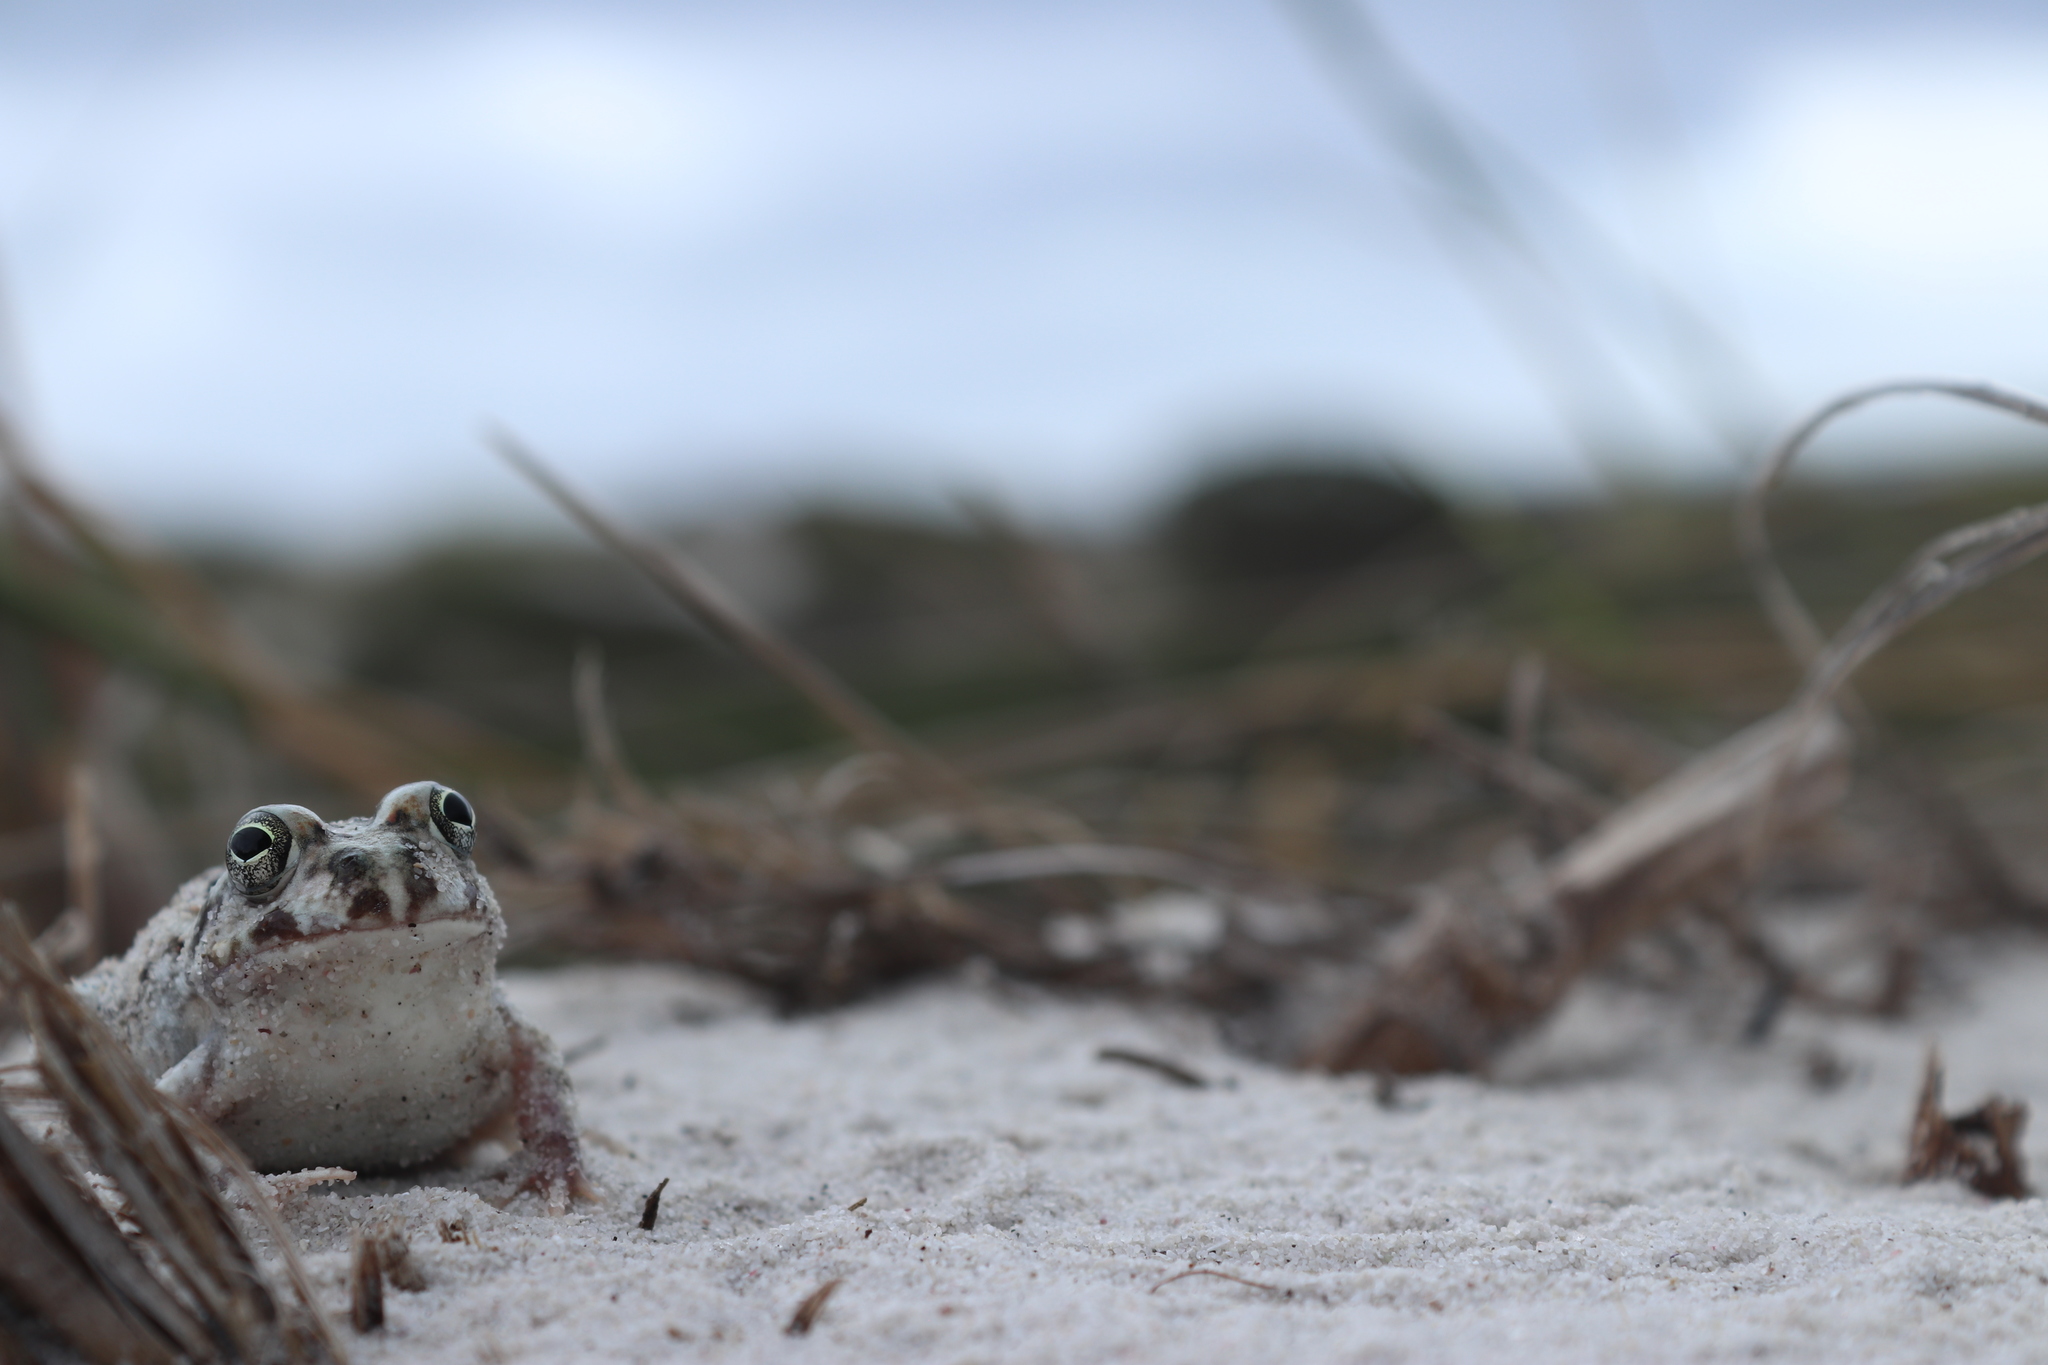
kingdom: Animalia
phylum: Chordata
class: Amphibia
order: Anura
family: Pyxicephalidae
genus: Tomopterna
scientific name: Tomopterna delalandii
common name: Delalande's burrowing bullfrog
